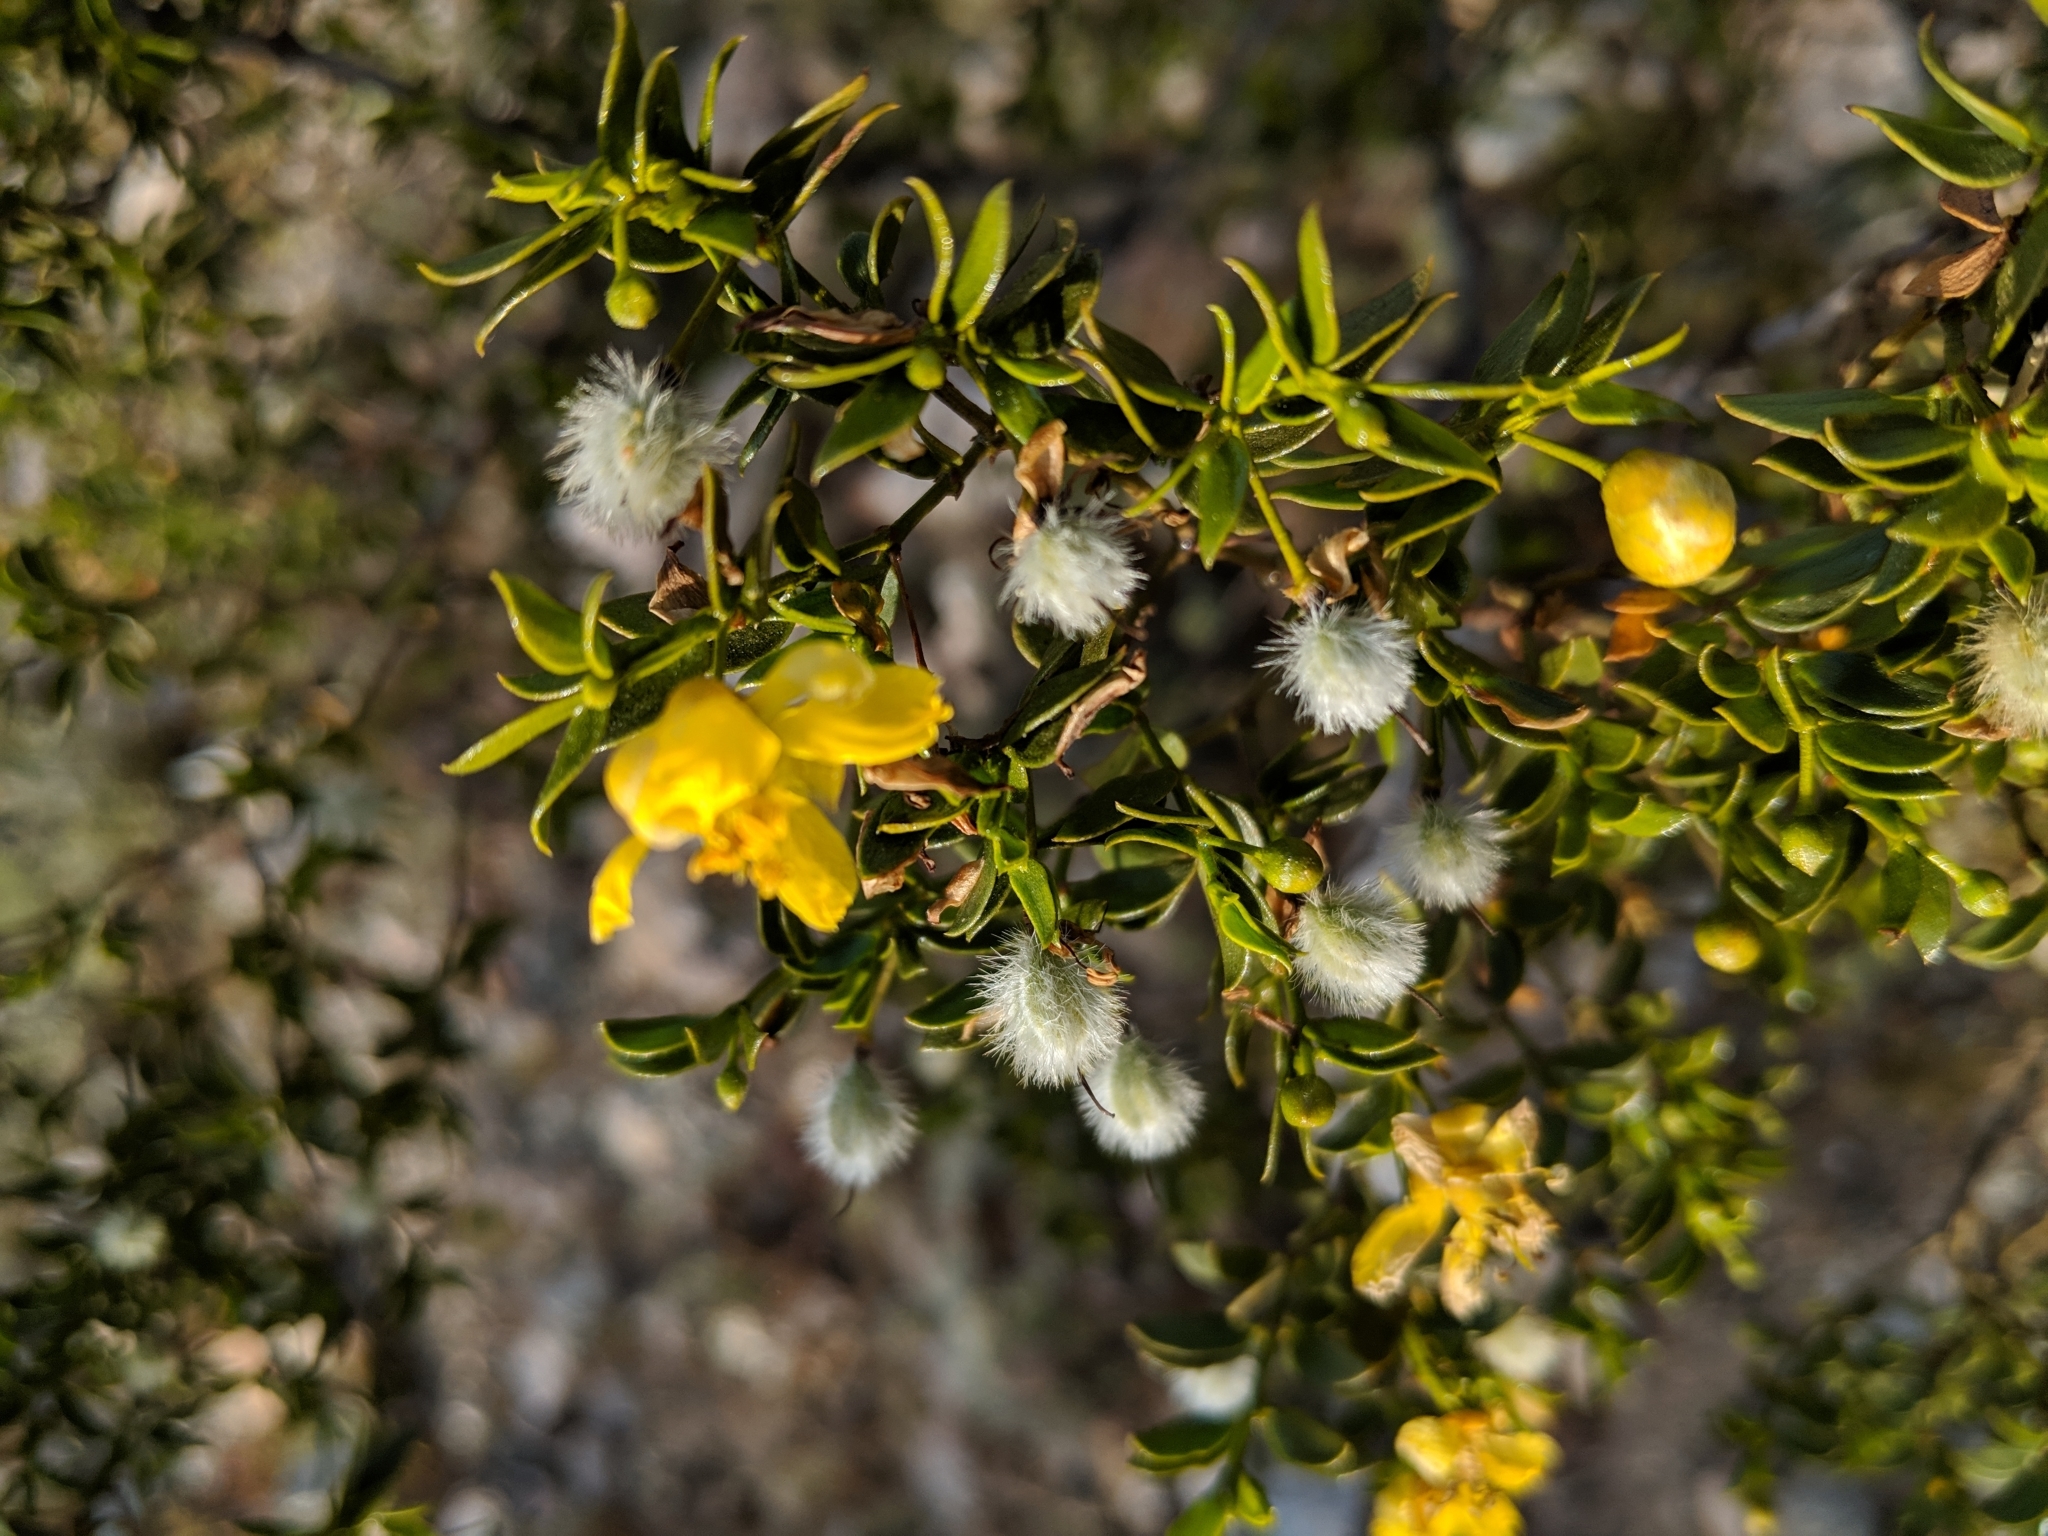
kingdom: Plantae
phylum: Tracheophyta
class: Magnoliopsida
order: Zygophyllales
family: Zygophyllaceae
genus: Larrea
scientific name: Larrea tridentata
